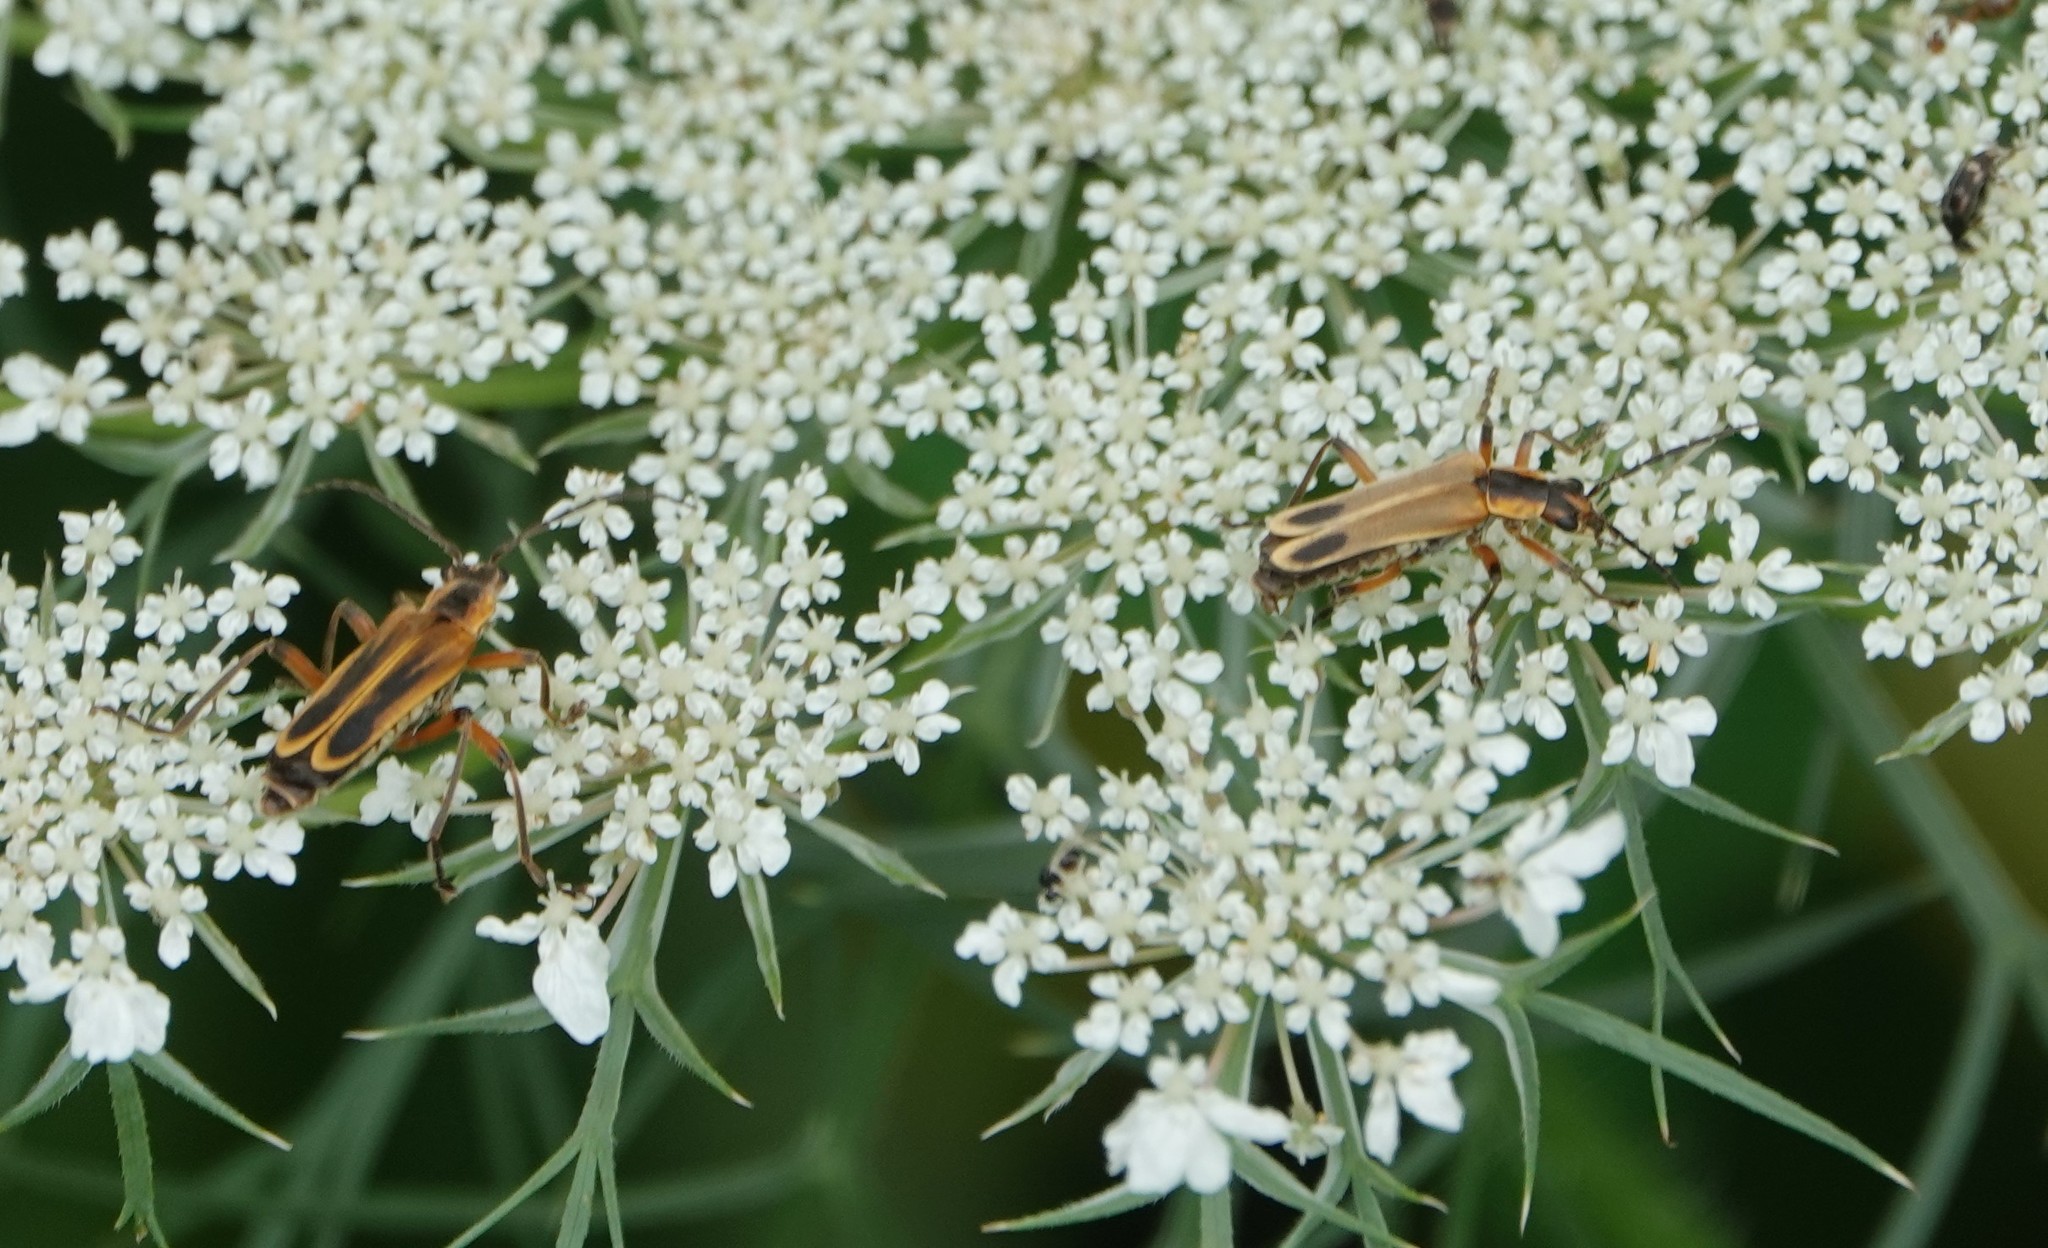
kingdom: Animalia
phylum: Arthropoda
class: Insecta
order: Coleoptera
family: Cantharidae
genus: Chauliognathus
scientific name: Chauliognathus marginatus
